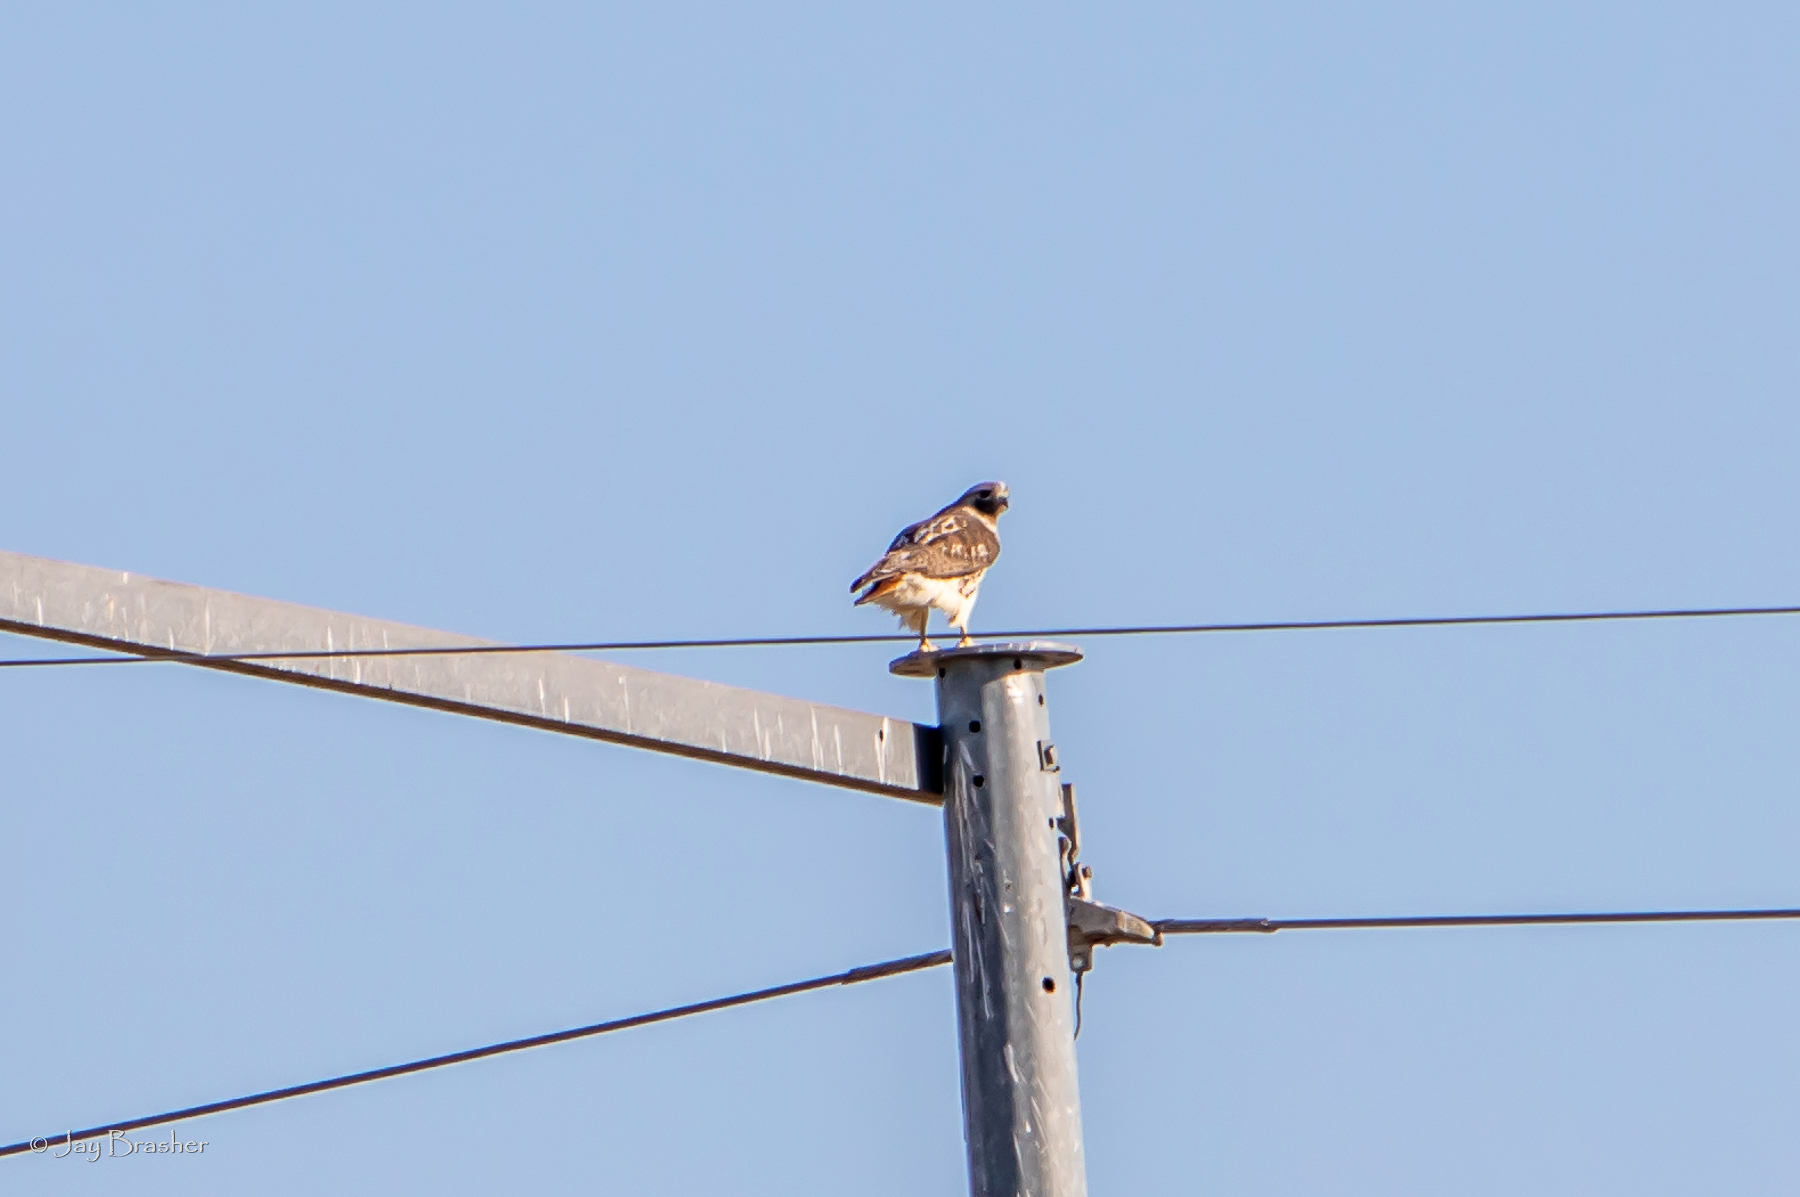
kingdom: Animalia
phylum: Chordata
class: Aves
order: Accipitriformes
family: Accipitridae
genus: Buteo
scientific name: Buteo jamaicensis
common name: Red-tailed hawk
